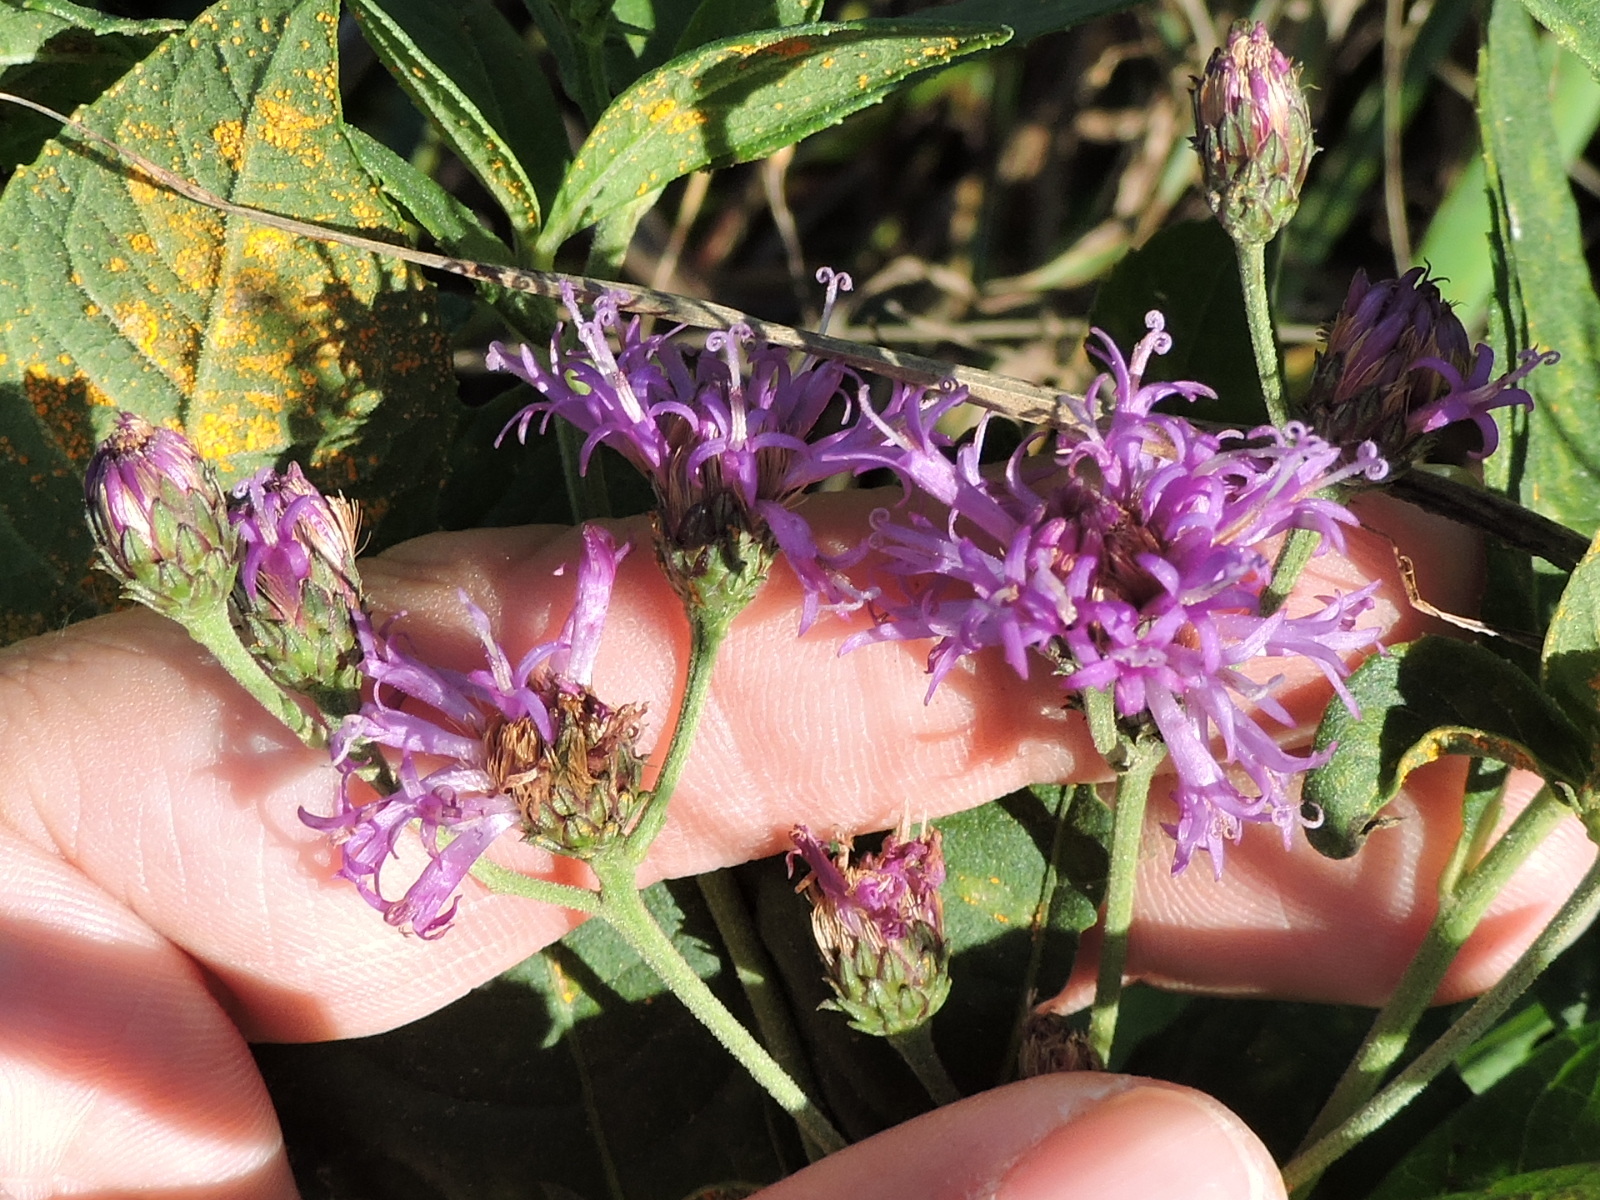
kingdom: Plantae
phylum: Tracheophyta
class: Magnoliopsida
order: Asterales
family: Asteraceae
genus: Vernonia
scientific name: Vernonia baldwinii
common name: Western ironweed
